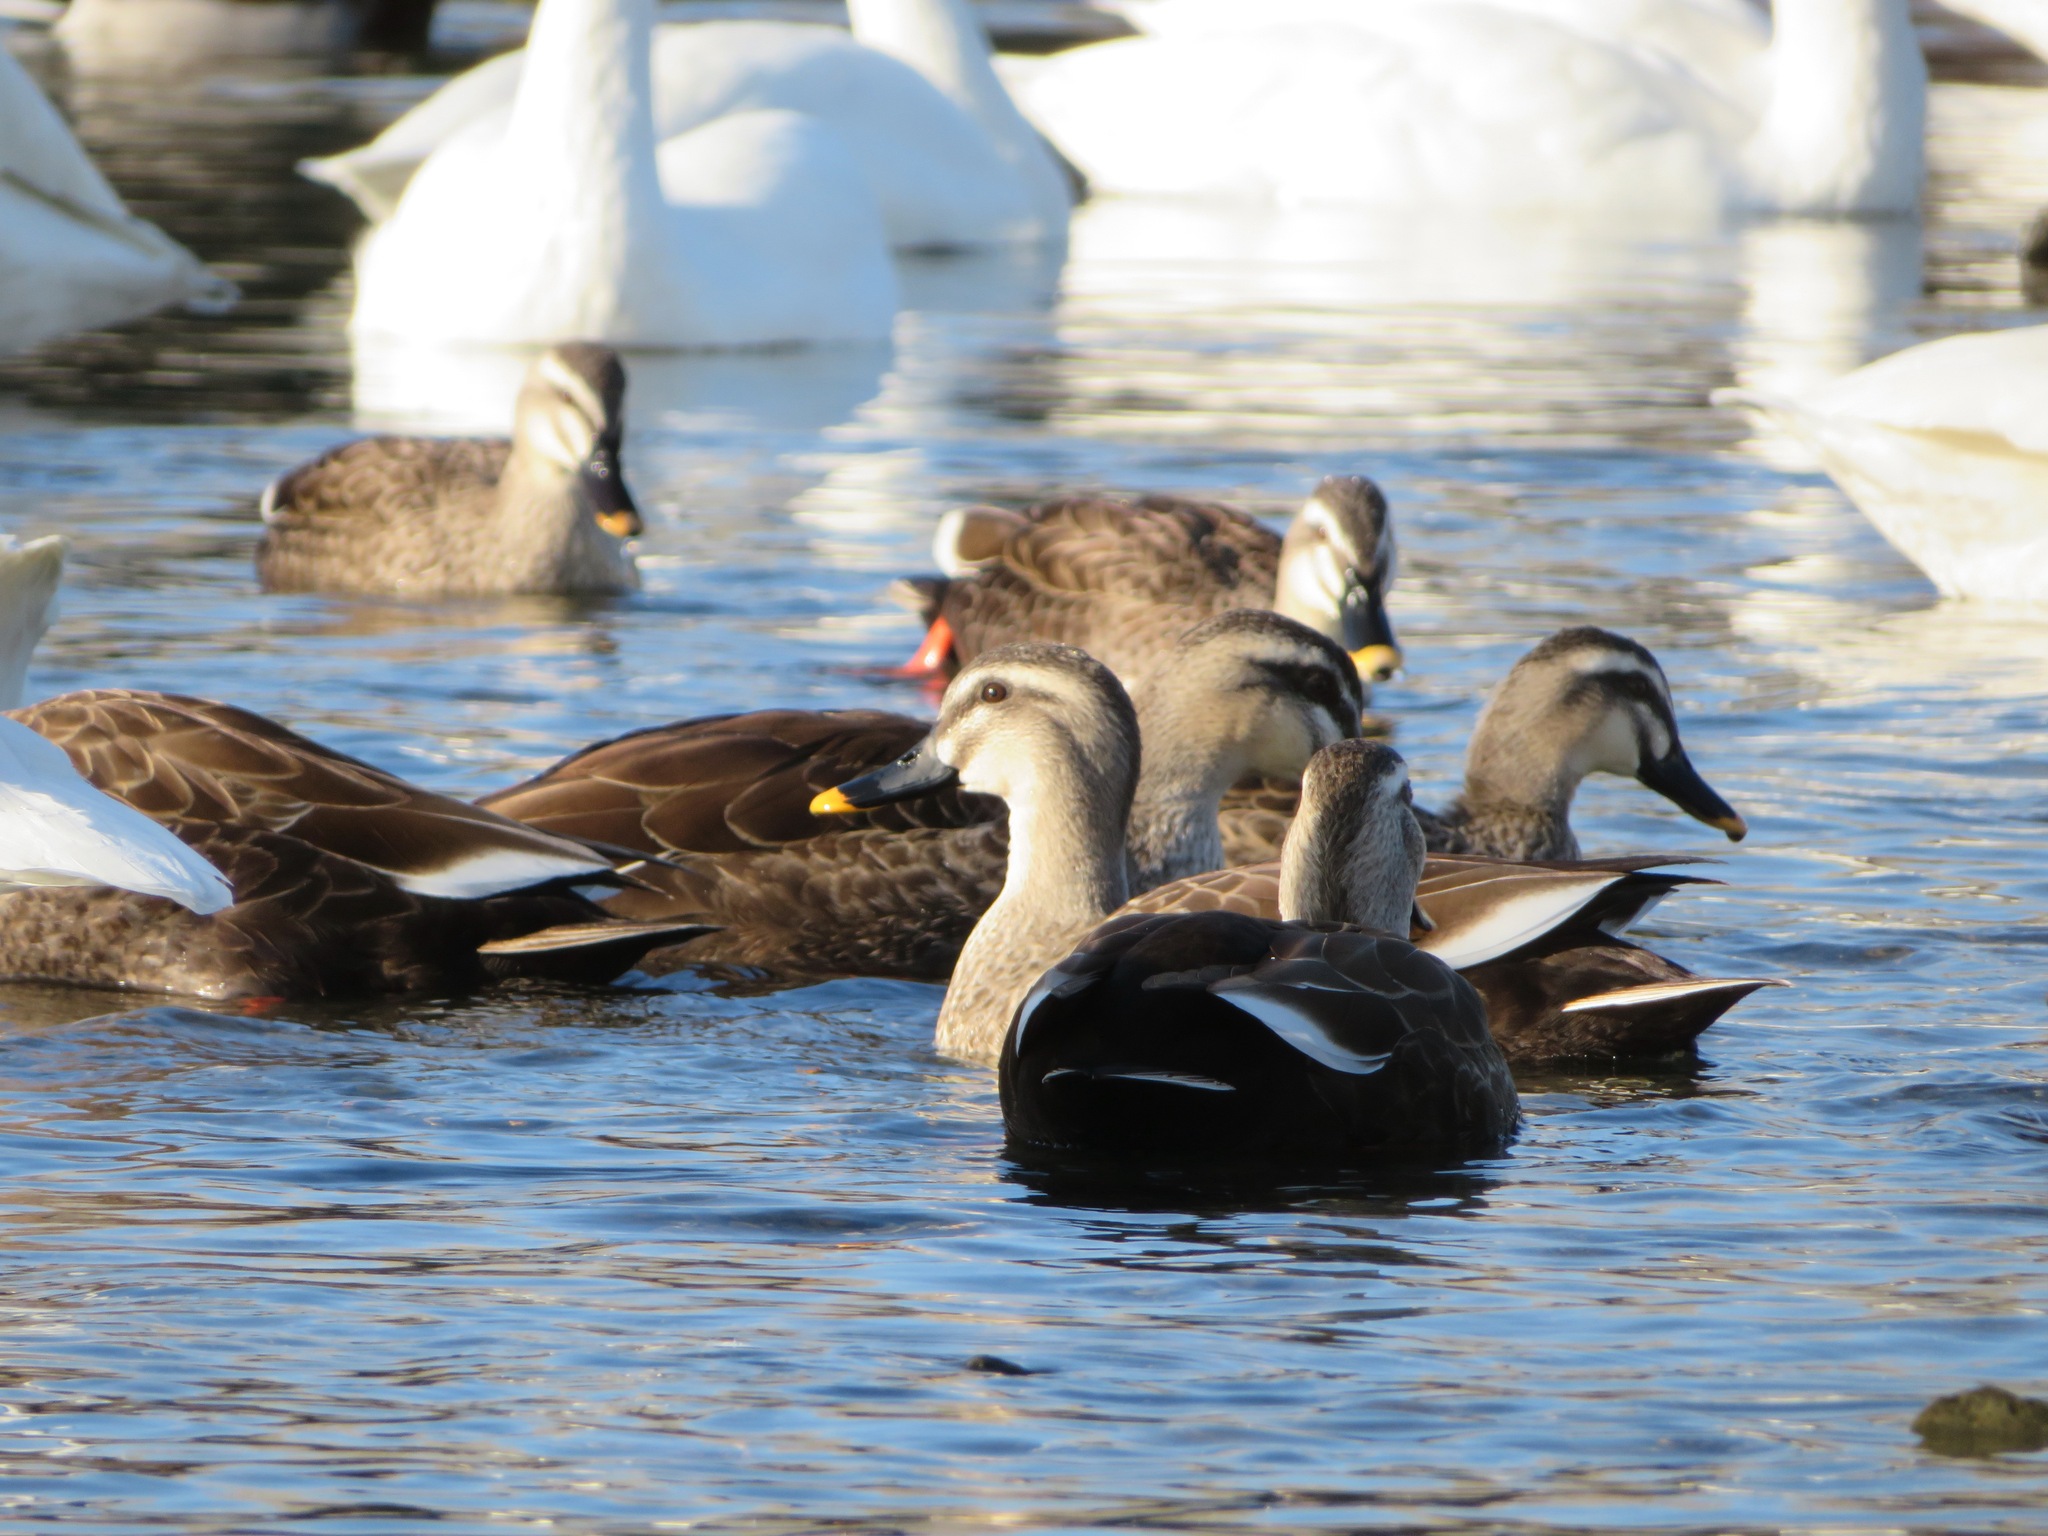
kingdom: Animalia
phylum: Chordata
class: Aves
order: Anseriformes
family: Anatidae
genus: Anas
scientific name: Anas zonorhyncha
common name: Eastern spot-billed duck
